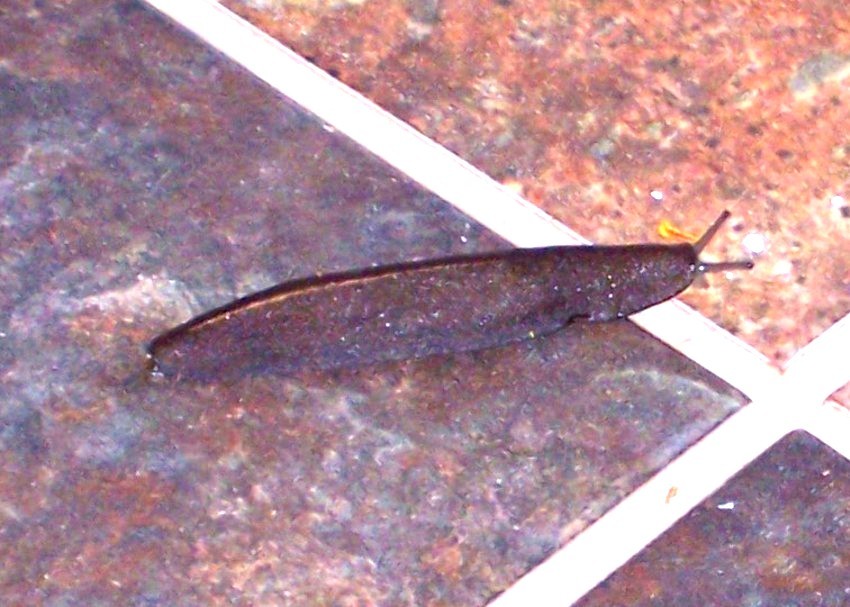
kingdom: Animalia
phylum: Mollusca
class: Gastropoda
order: Systellommatophora
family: Veronicellidae
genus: Laevicaulis
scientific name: Laevicaulis alte
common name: Tropical leatherleaf
